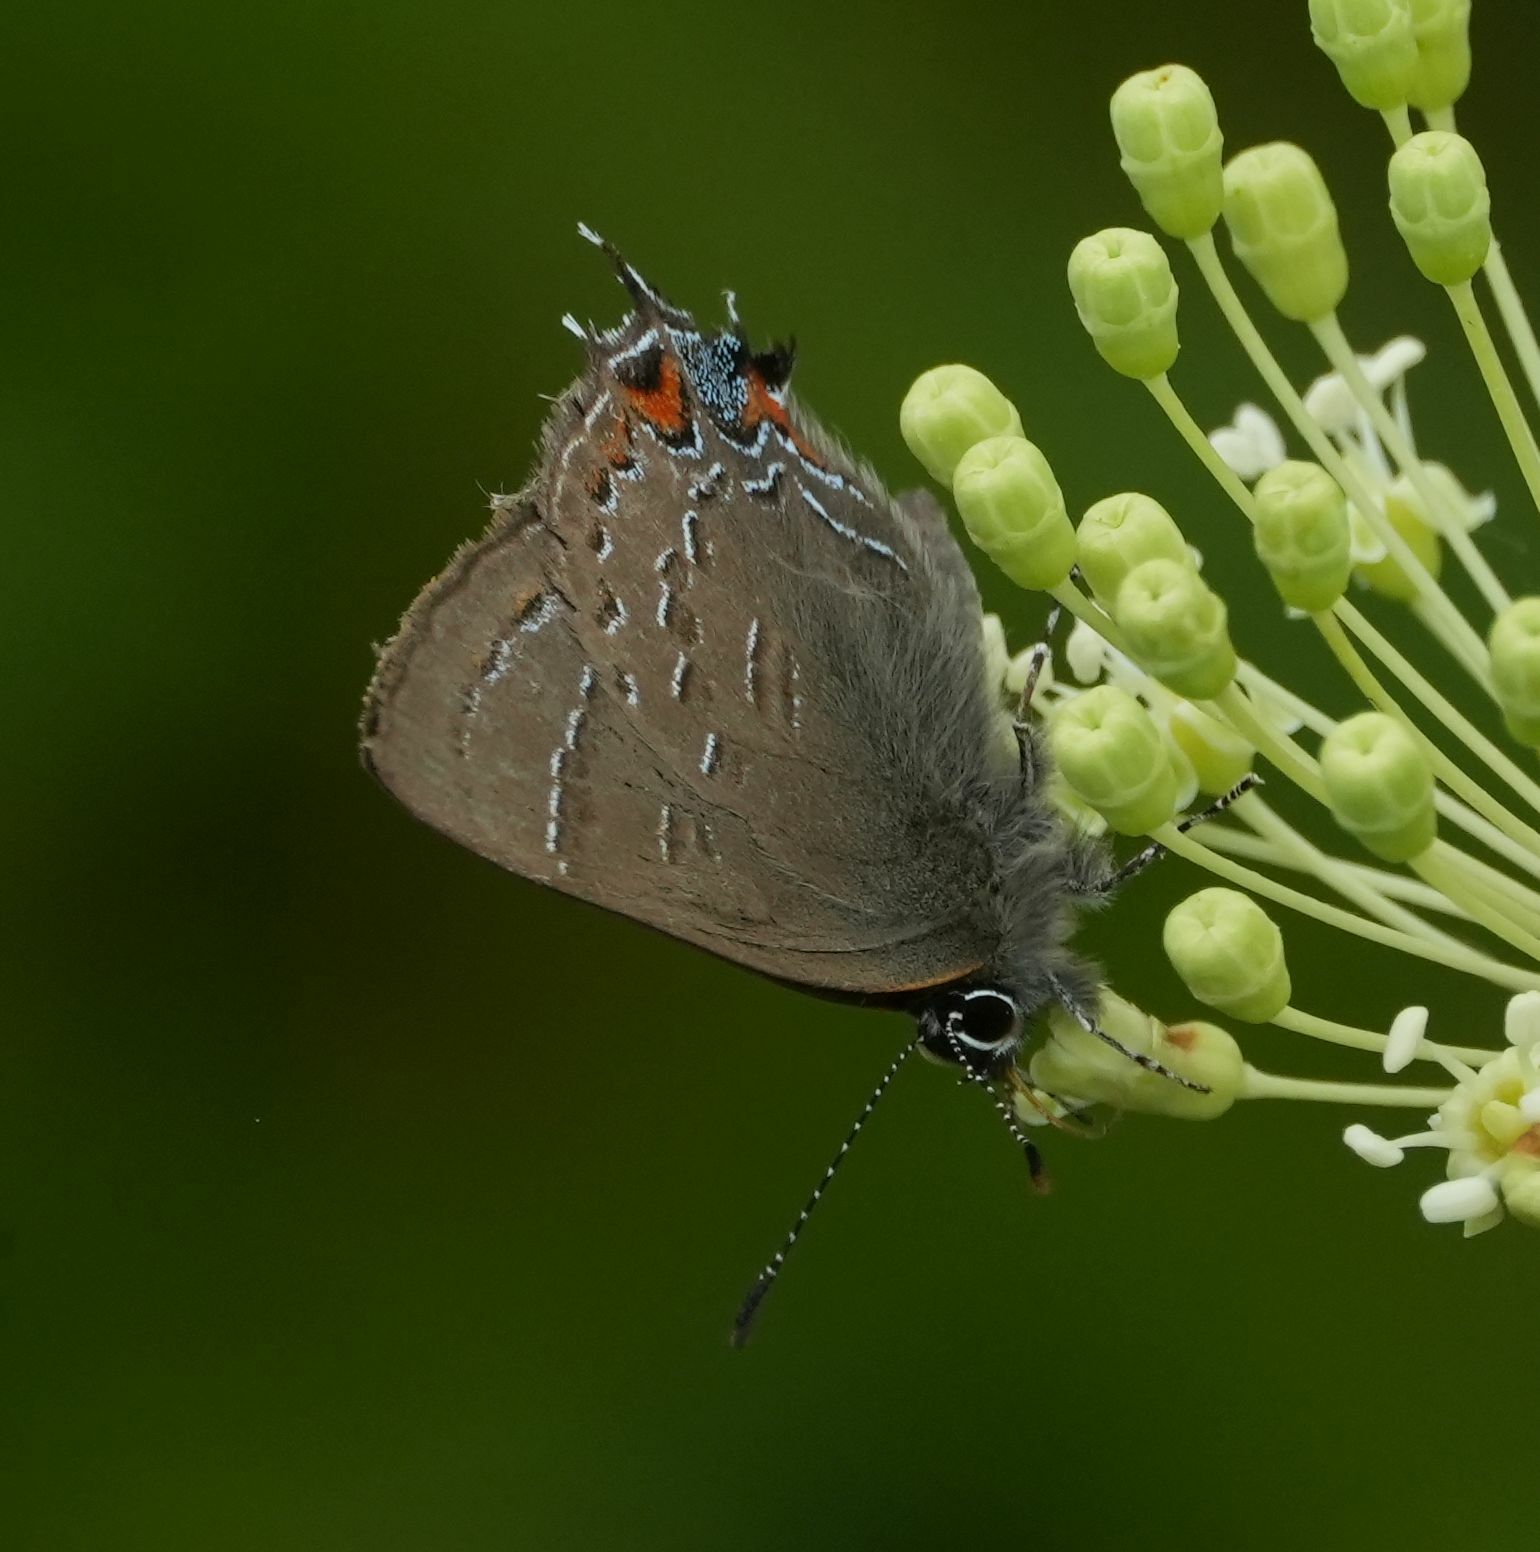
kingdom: Animalia
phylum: Arthropoda
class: Insecta
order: Lepidoptera
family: Lycaenidae
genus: Satyrium
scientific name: Satyrium calanus
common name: Banded hairstreak
